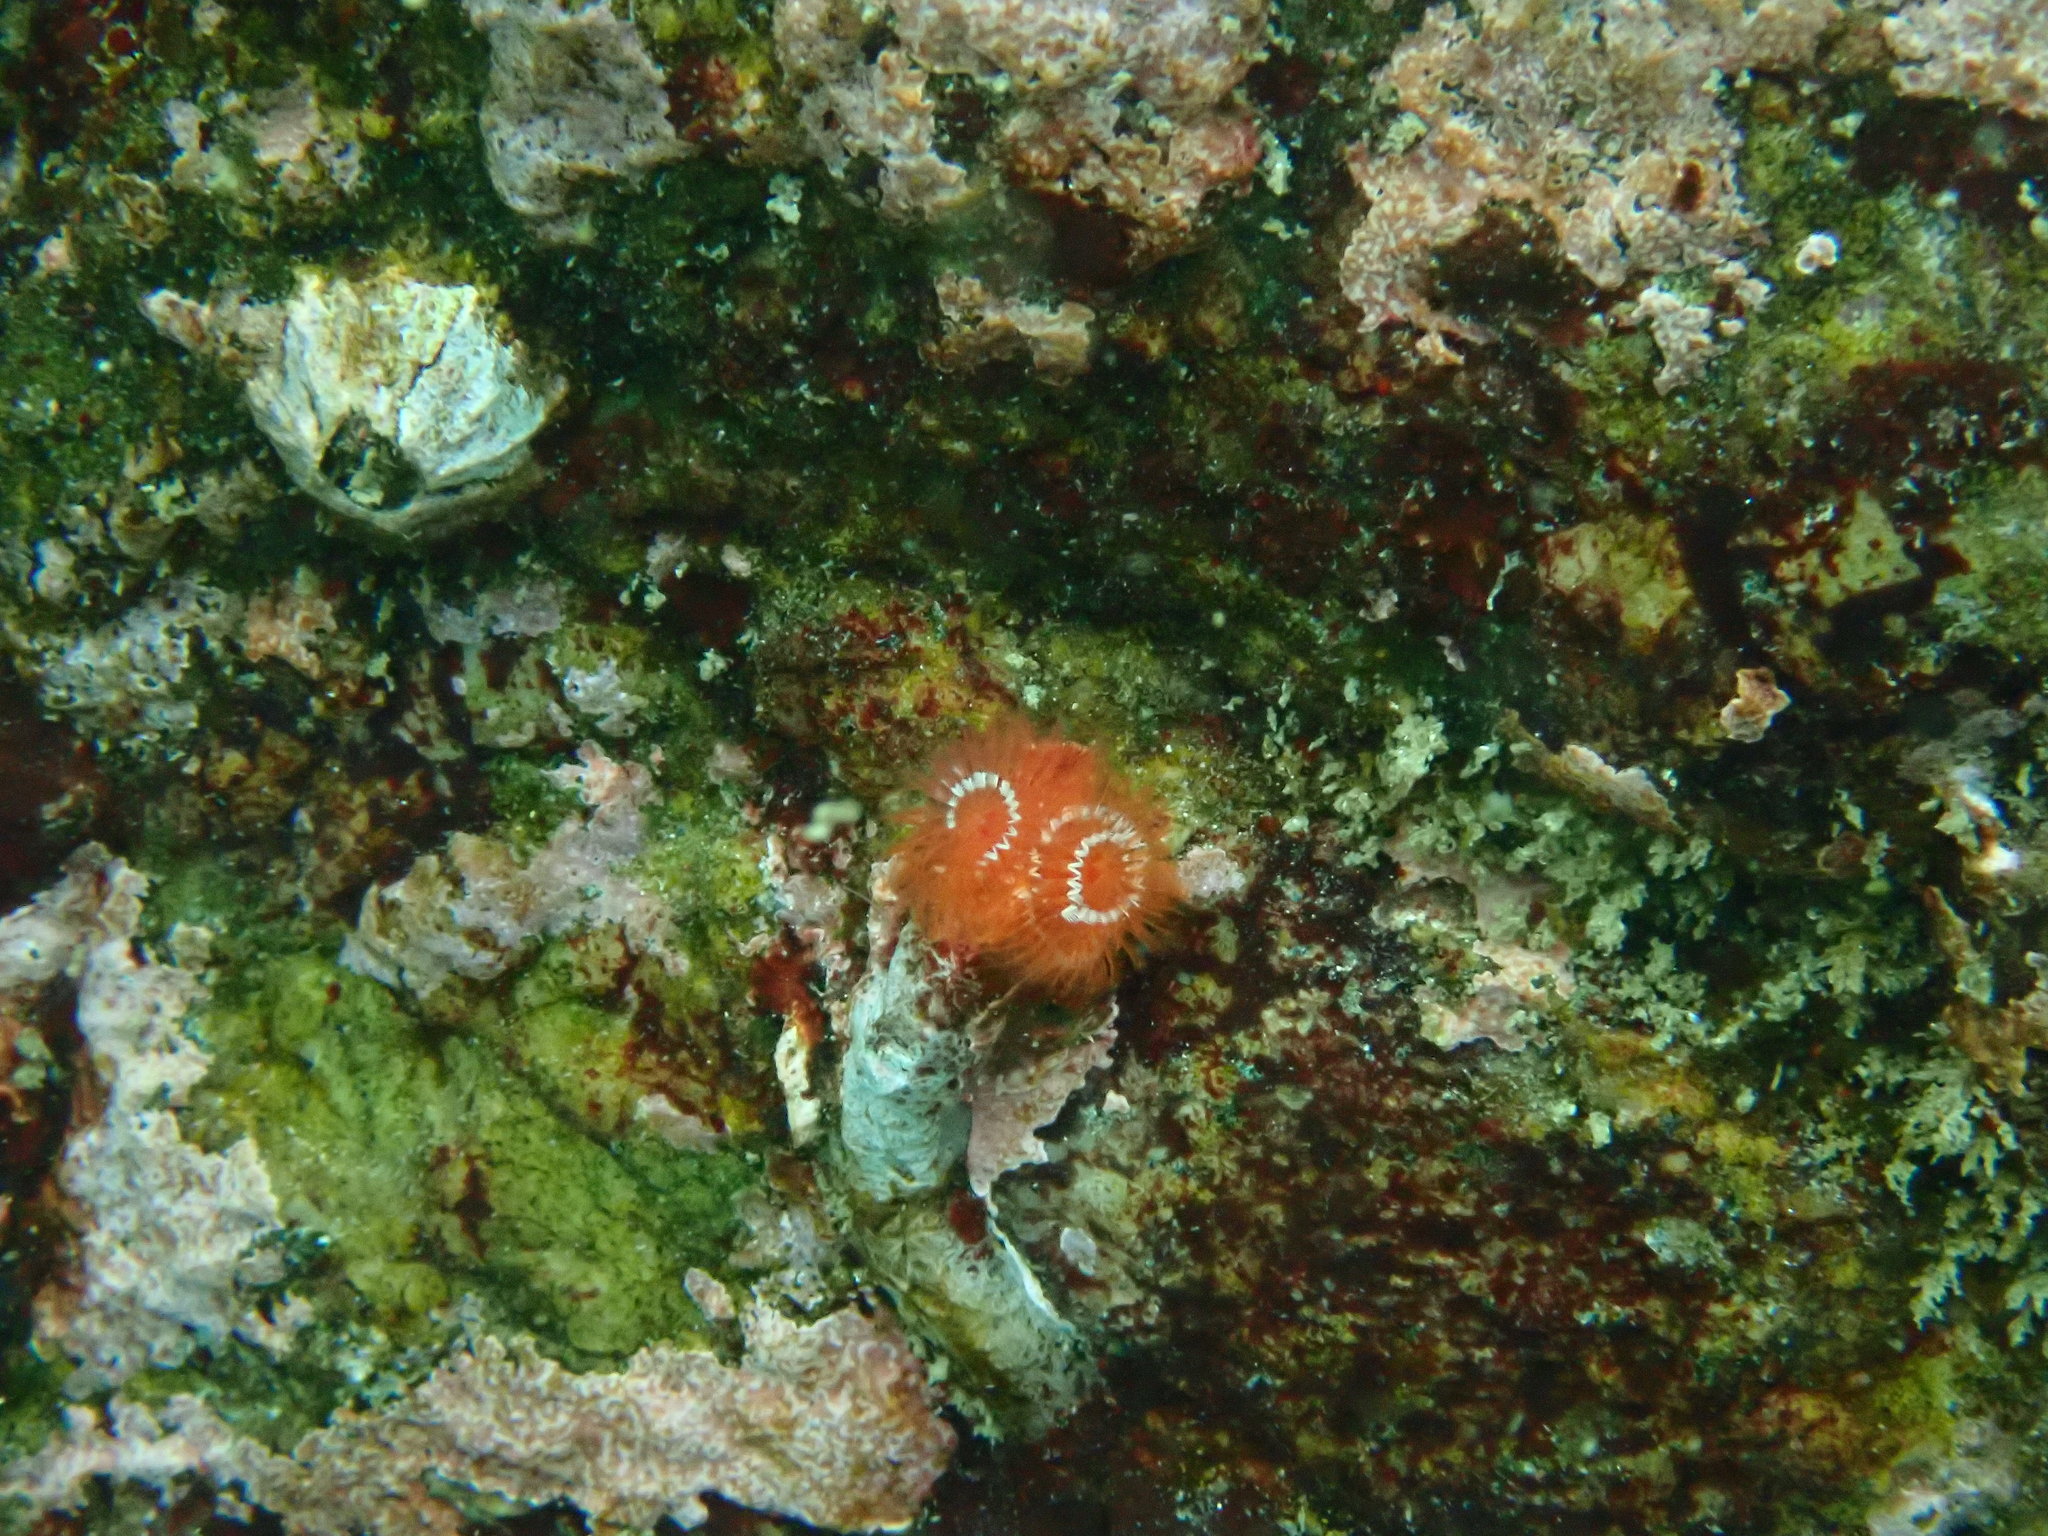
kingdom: Animalia
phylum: Annelida
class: Polychaeta
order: Sabellida
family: Serpulidae
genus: Serpula
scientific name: Serpula columbiana
